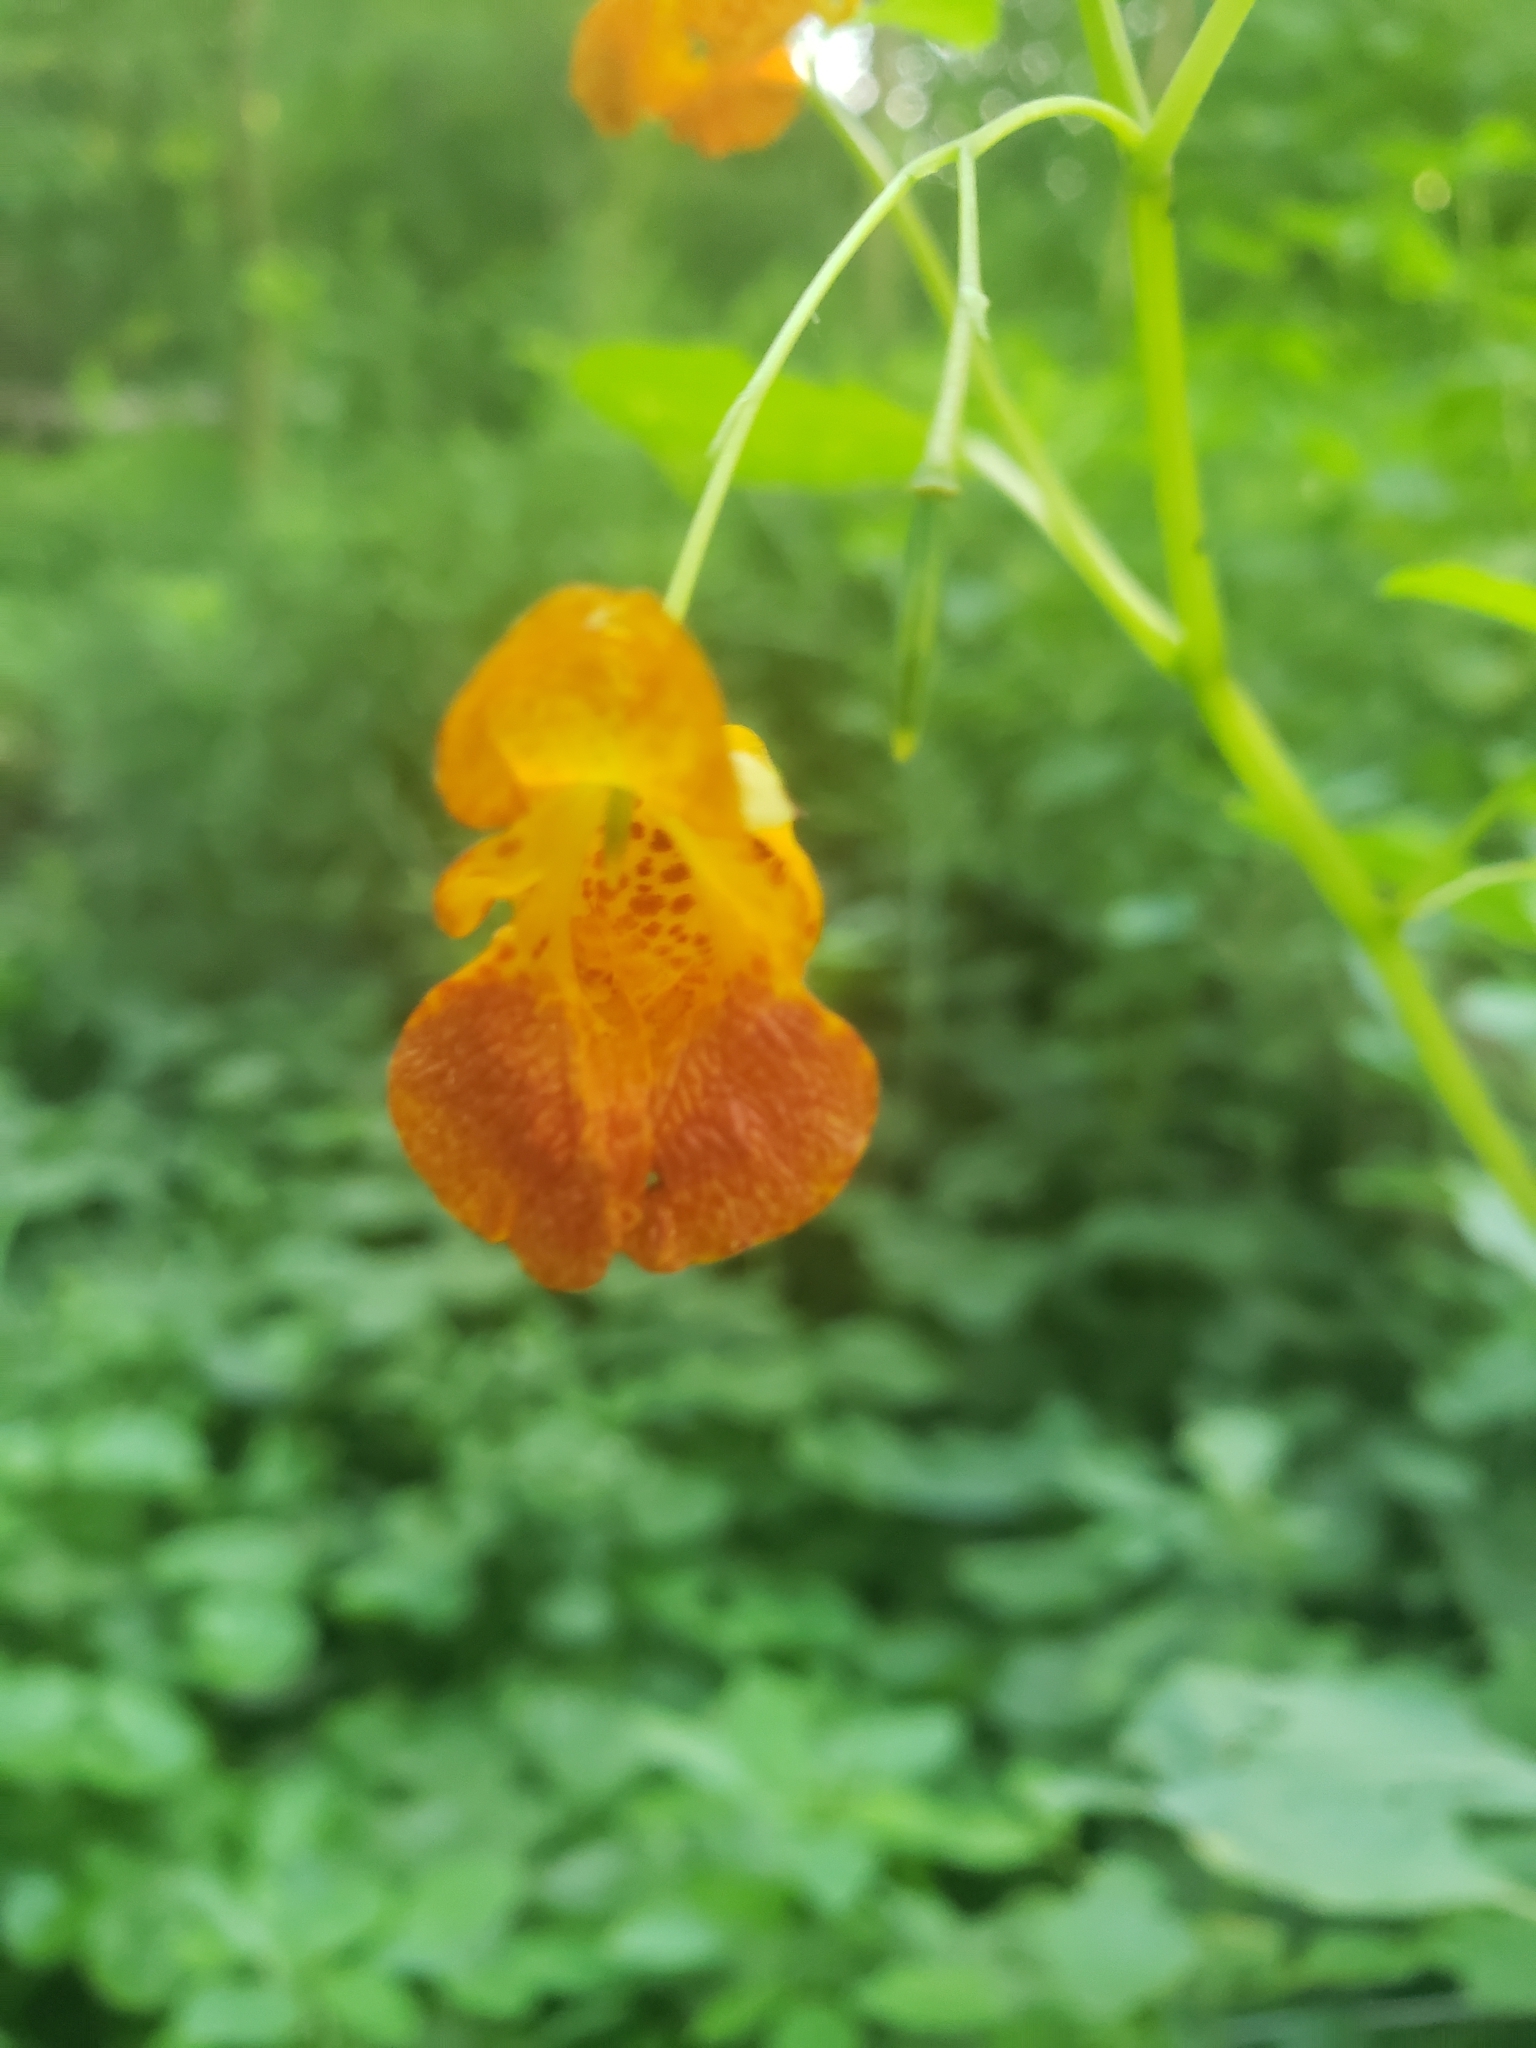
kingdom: Plantae
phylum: Tracheophyta
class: Magnoliopsida
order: Ericales
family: Balsaminaceae
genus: Impatiens
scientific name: Impatiens capensis
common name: Orange balsam
